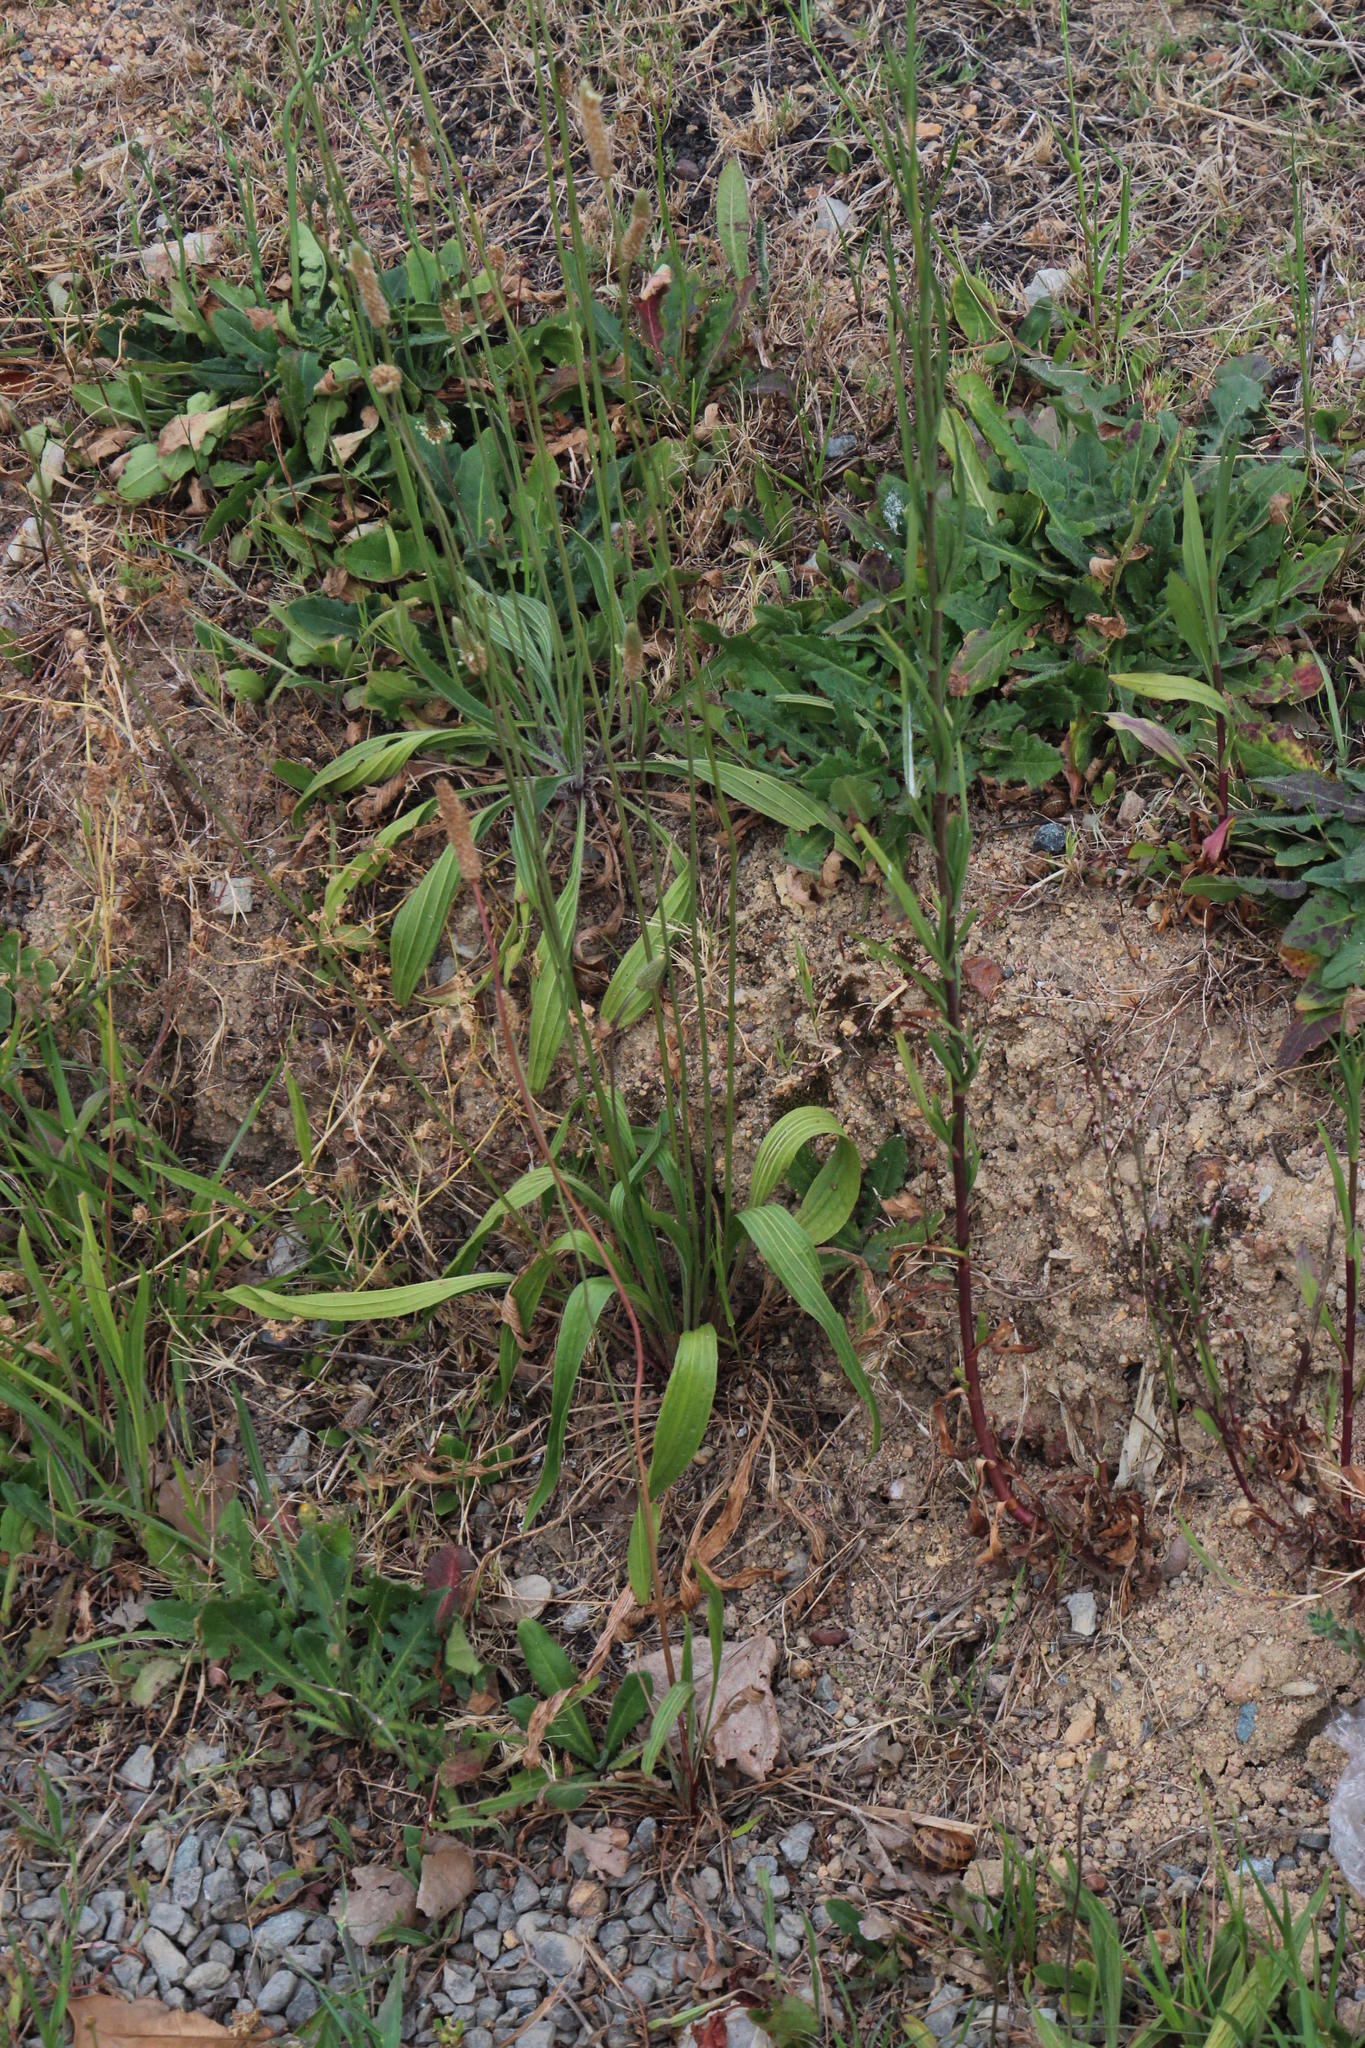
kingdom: Plantae
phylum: Tracheophyta
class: Magnoliopsida
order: Lamiales
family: Plantaginaceae
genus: Plantago
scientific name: Plantago lanceolata
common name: Ribwort plantain
